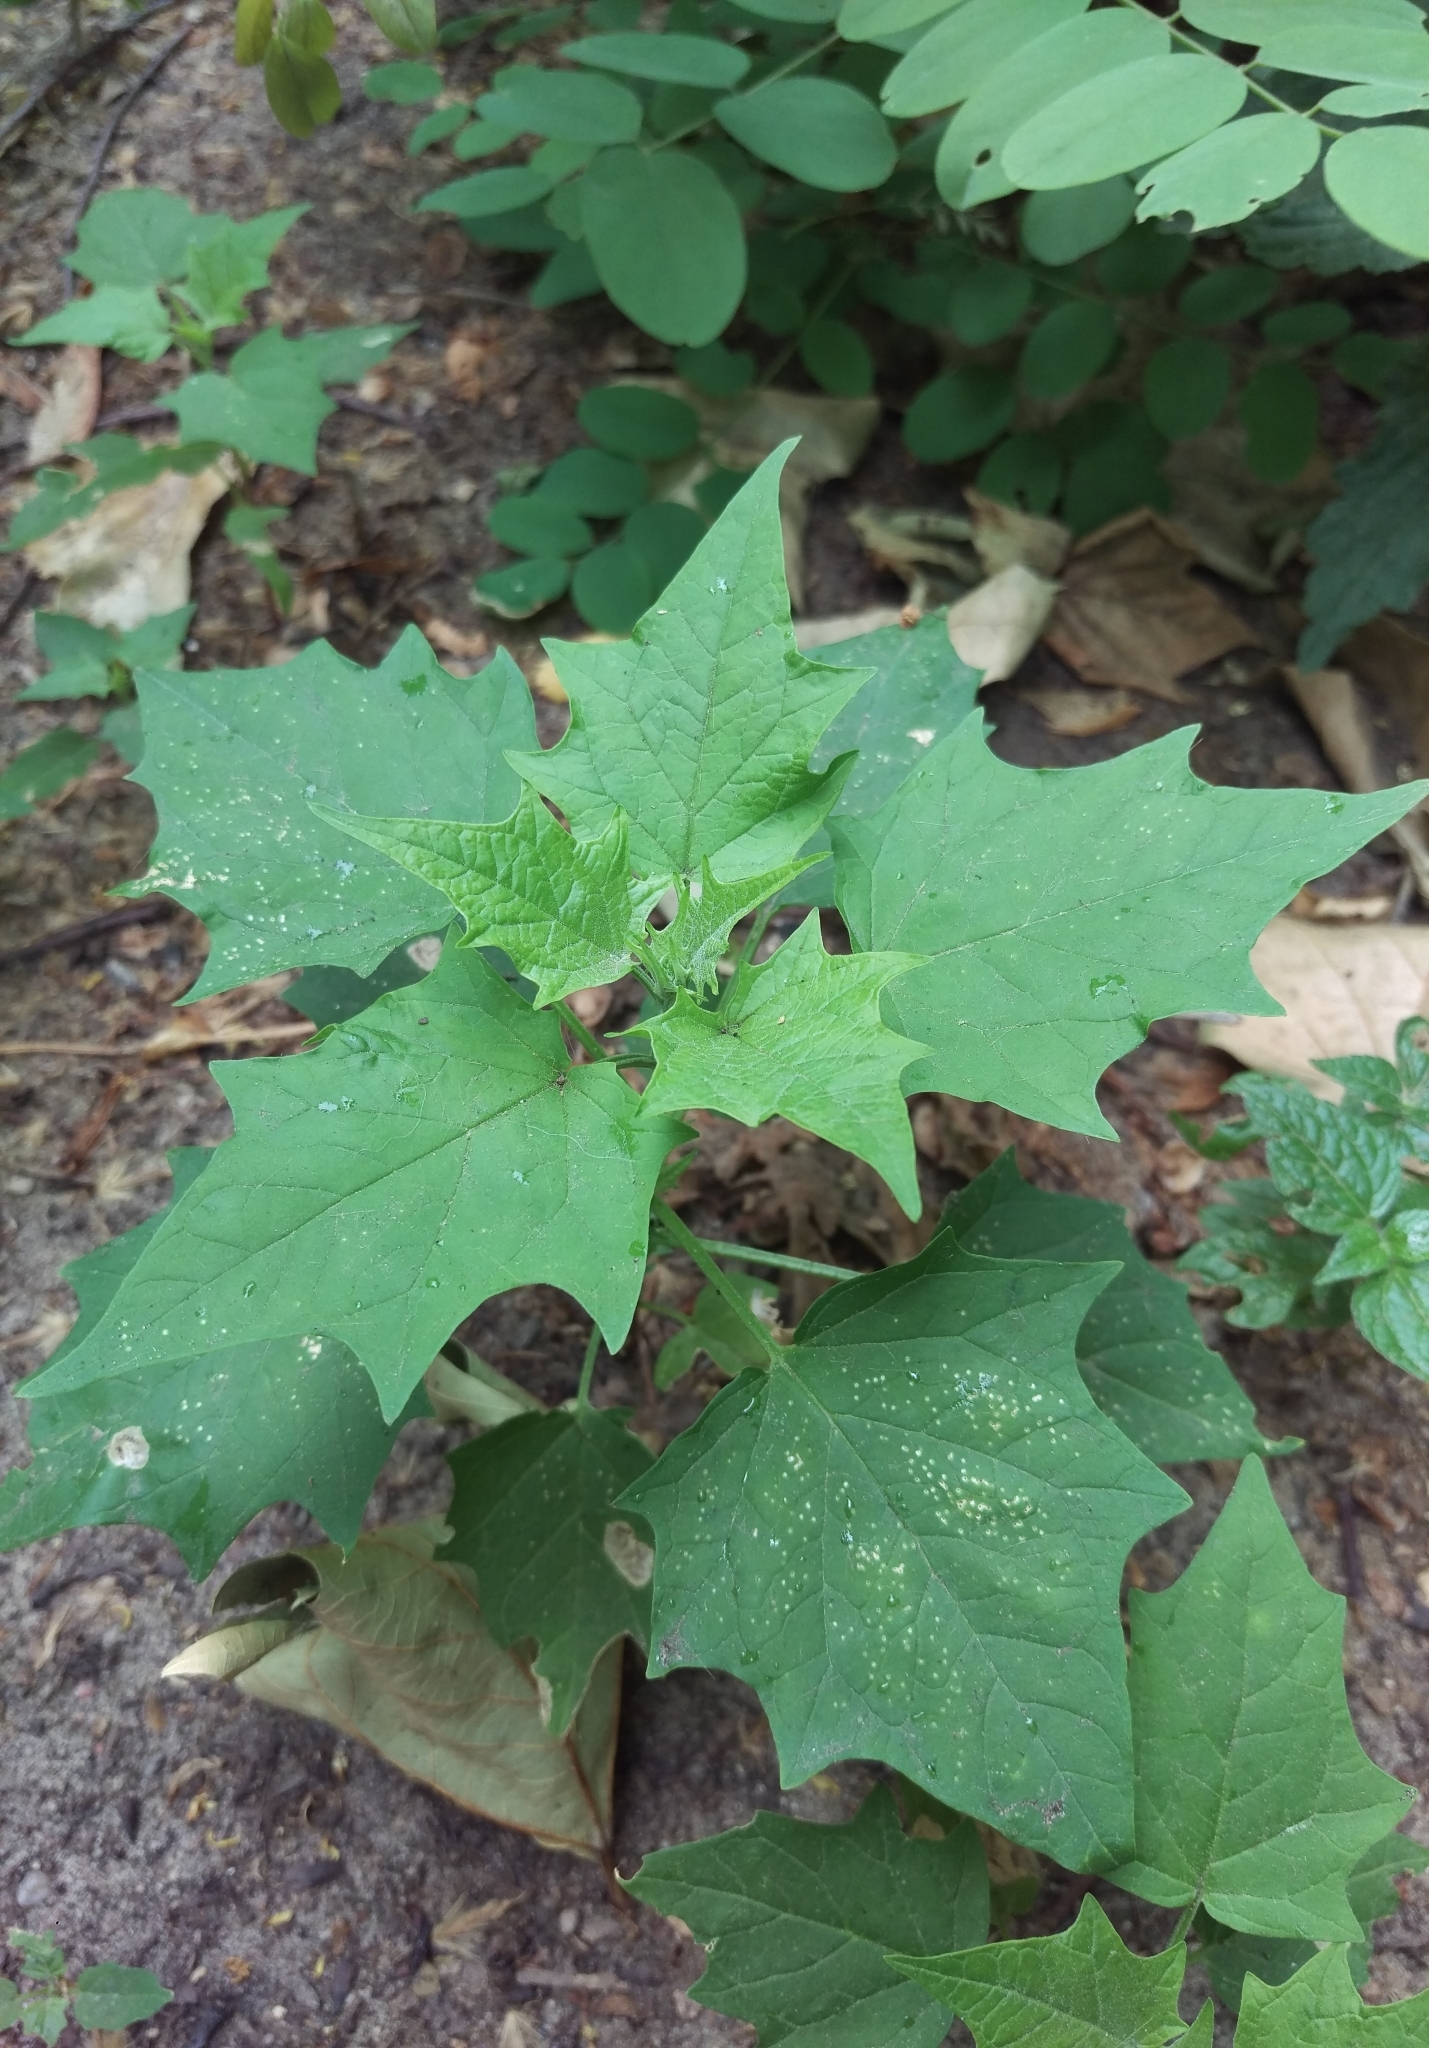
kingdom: Plantae
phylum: Tracheophyta
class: Magnoliopsida
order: Caryophyllales
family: Amaranthaceae
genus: Chenopodiastrum
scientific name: Chenopodiastrum hybridum
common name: Mapleleaf goosefoot
